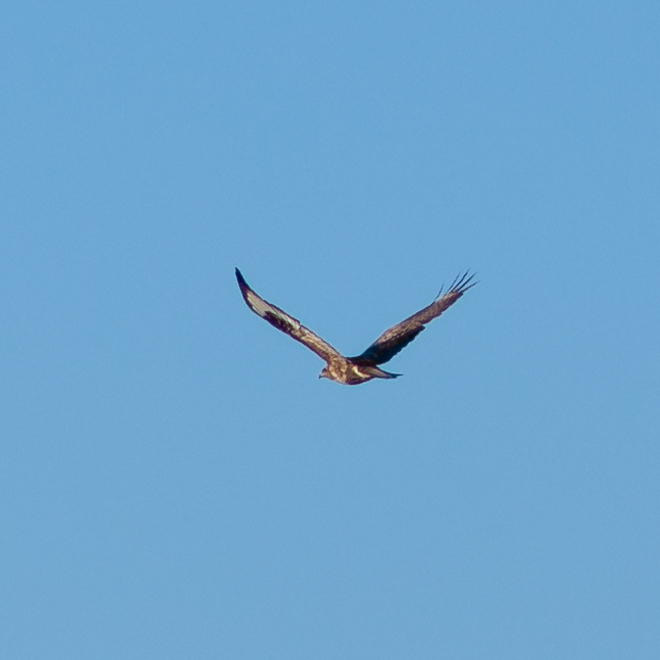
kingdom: Animalia
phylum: Chordata
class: Aves
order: Accipitriformes
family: Accipitridae
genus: Buteo
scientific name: Buteo buteo
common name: Common buzzard
